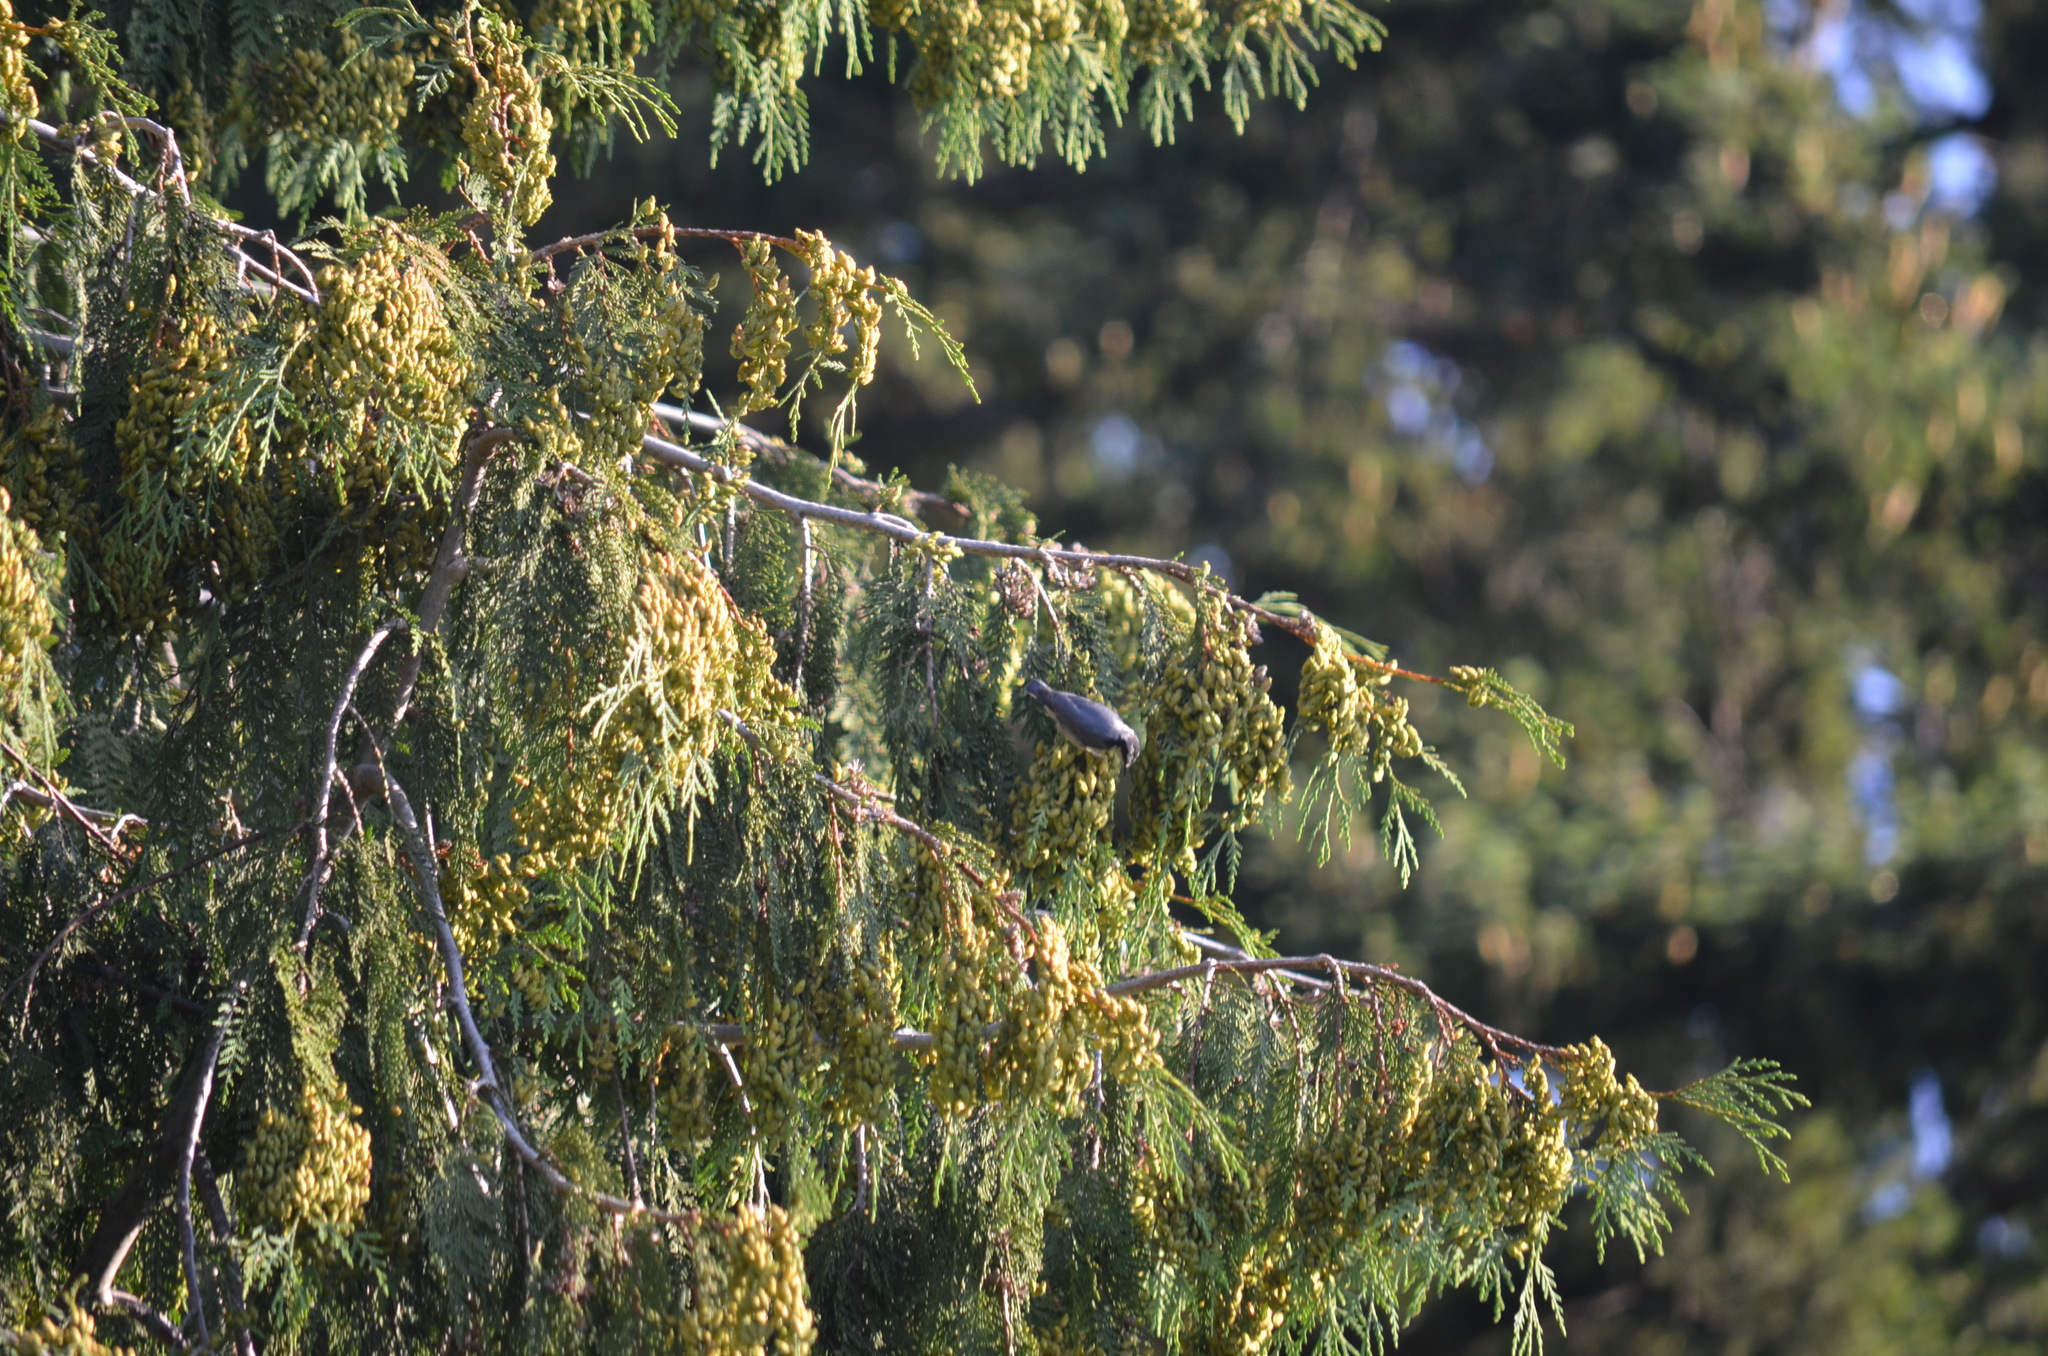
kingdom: Animalia
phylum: Chordata
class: Aves
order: Passeriformes
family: Sittidae
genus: Sitta
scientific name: Sitta canadensis
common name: Red-breasted nuthatch
